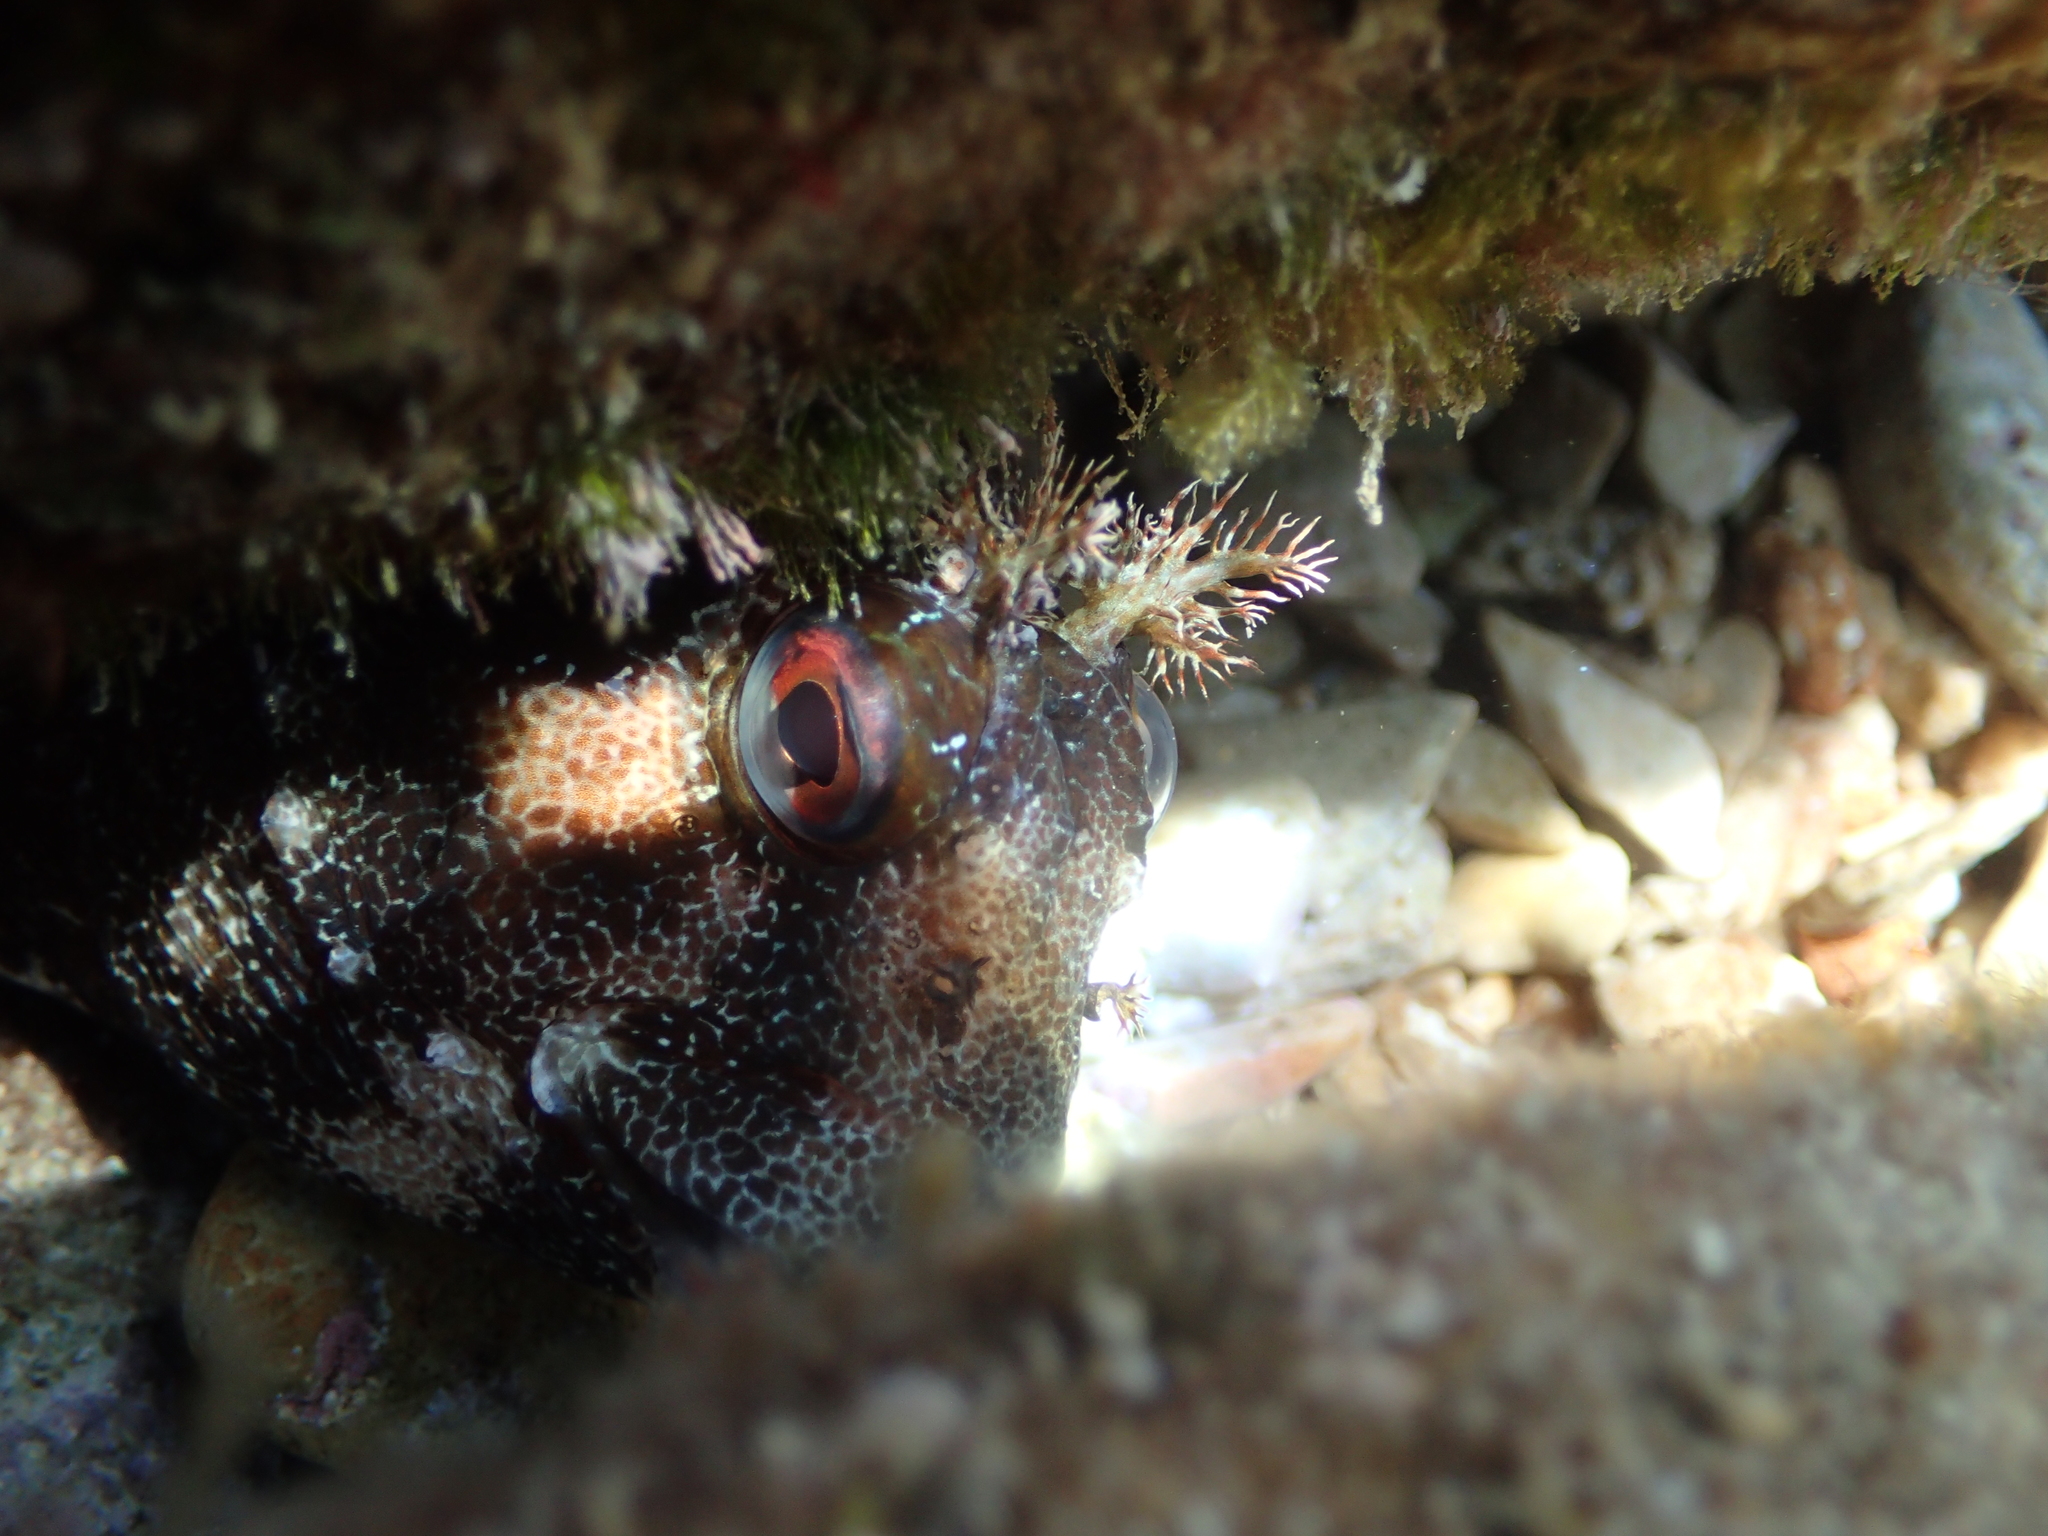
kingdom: Animalia
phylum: Chordata
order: Perciformes
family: Blenniidae
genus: Parablennius
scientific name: Parablennius gattorugine
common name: Tompot blenny
